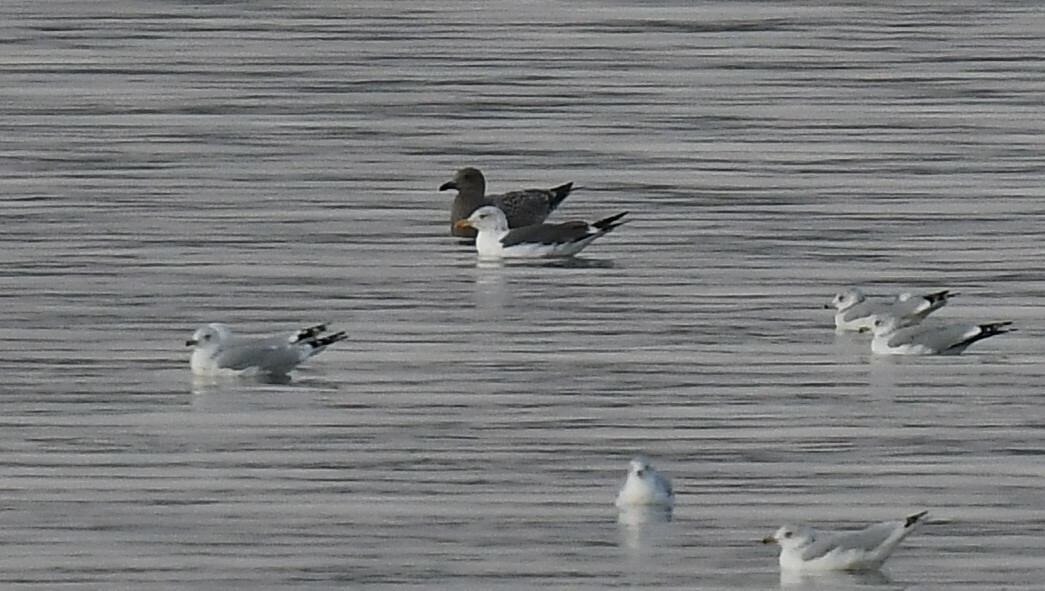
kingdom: Animalia
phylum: Chordata
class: Aves
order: Charadriiformes
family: Laridae
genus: Larus
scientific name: Larus fuscus
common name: Lesser black-backed gull
